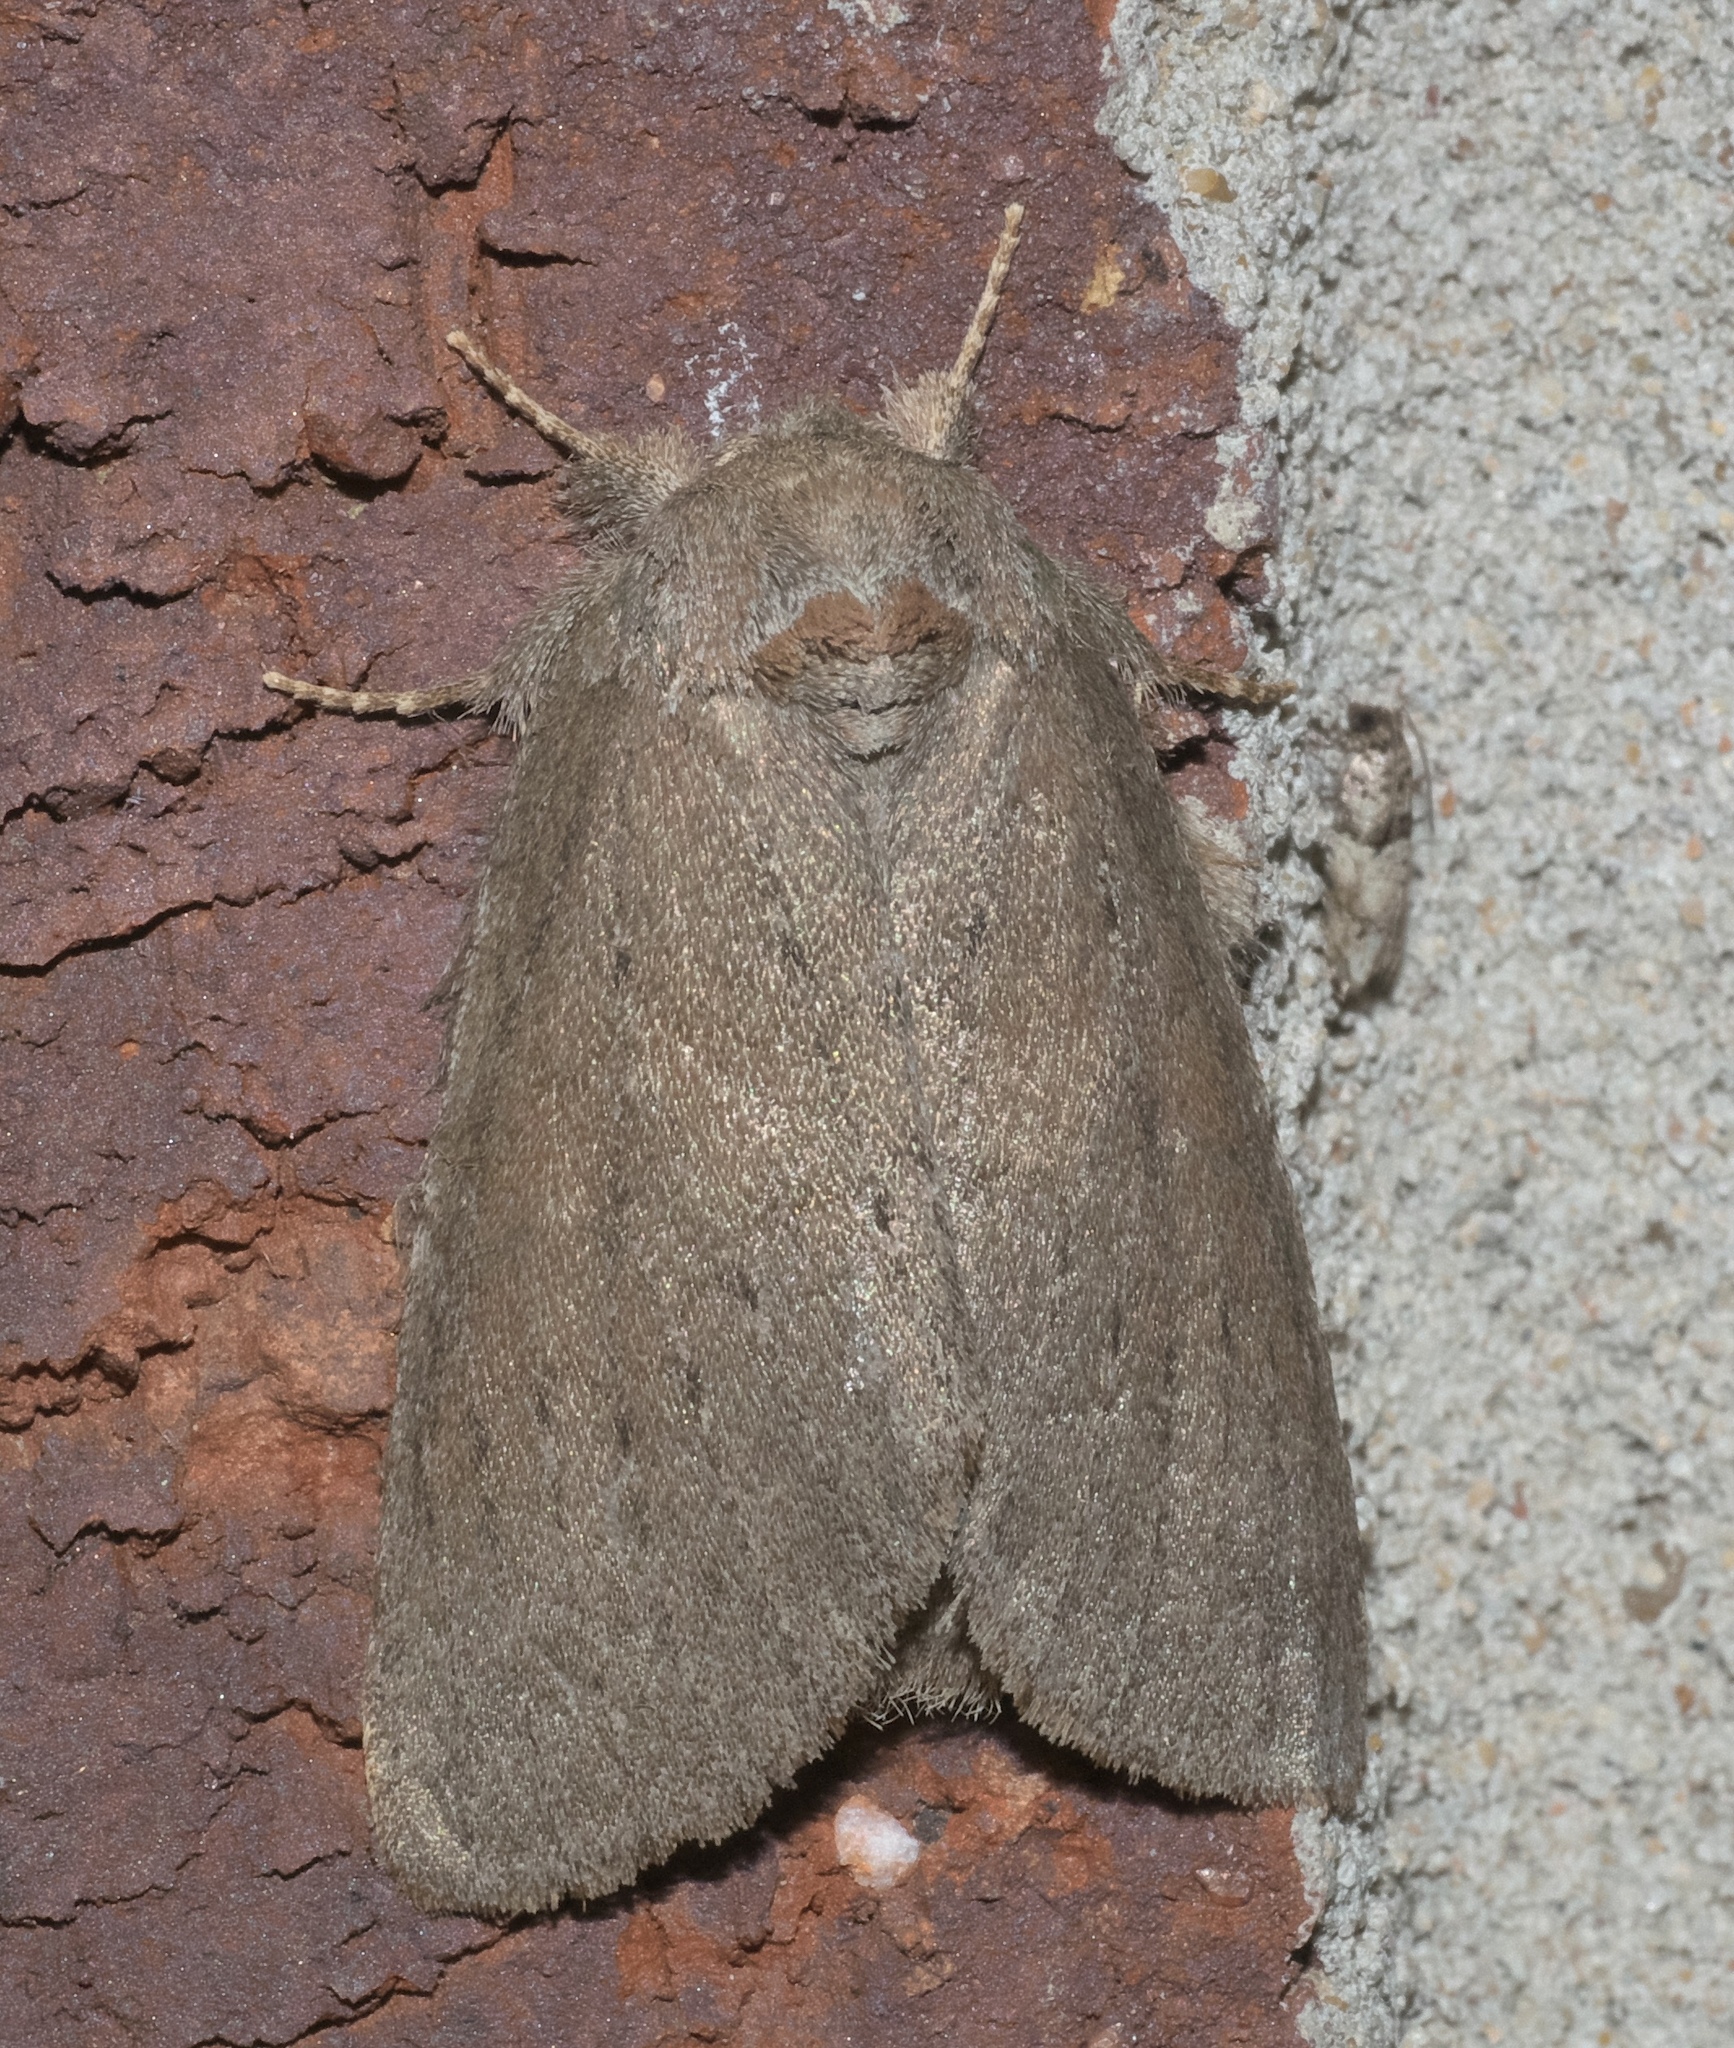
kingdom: Animalia
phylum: Arthropoda
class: Insecta
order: Lepidoptera
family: Notodontidae
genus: Misogada
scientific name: Misogada unicolor
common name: Drab prominent
